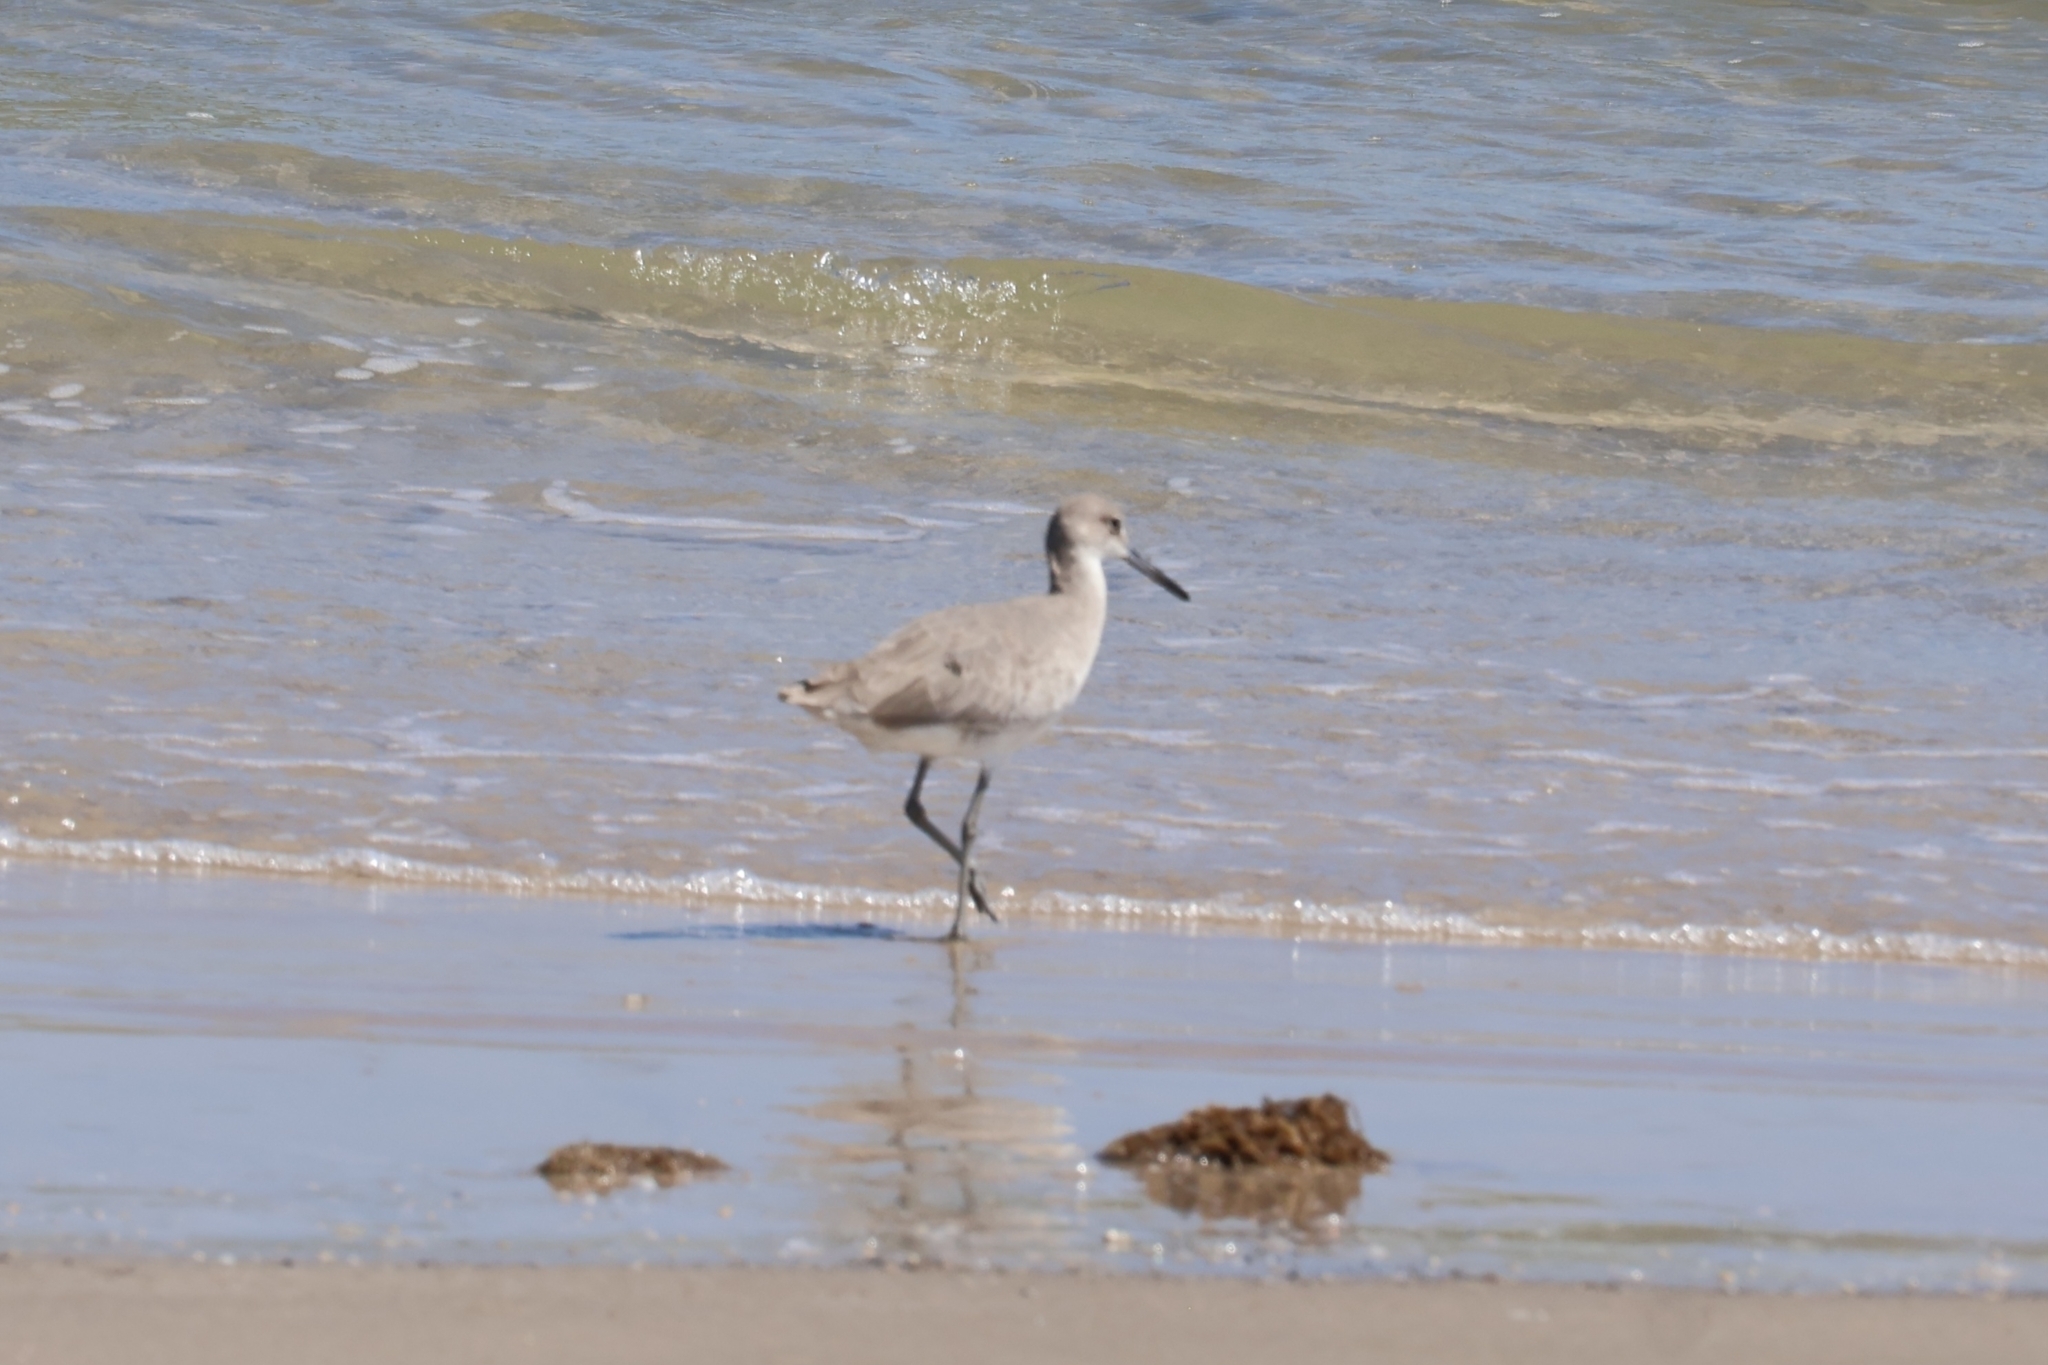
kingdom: Animalia
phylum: Chordata
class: Aves
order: Charadriiformes
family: Scolopacidae
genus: Tringa
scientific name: Tringa semipalmata
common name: Willet
